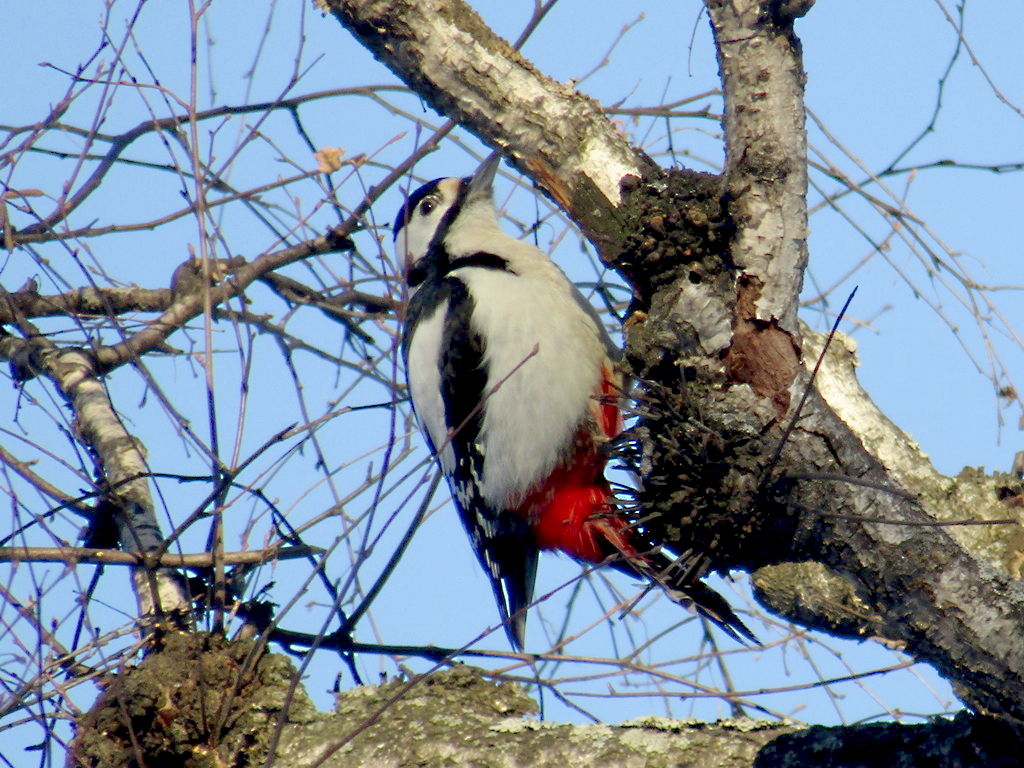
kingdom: Animalia
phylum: Chordata
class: Aves
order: Piciformes
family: Picidae
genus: Dendrocopos
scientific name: Dendrocopos major
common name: Great spotted woodpecker
